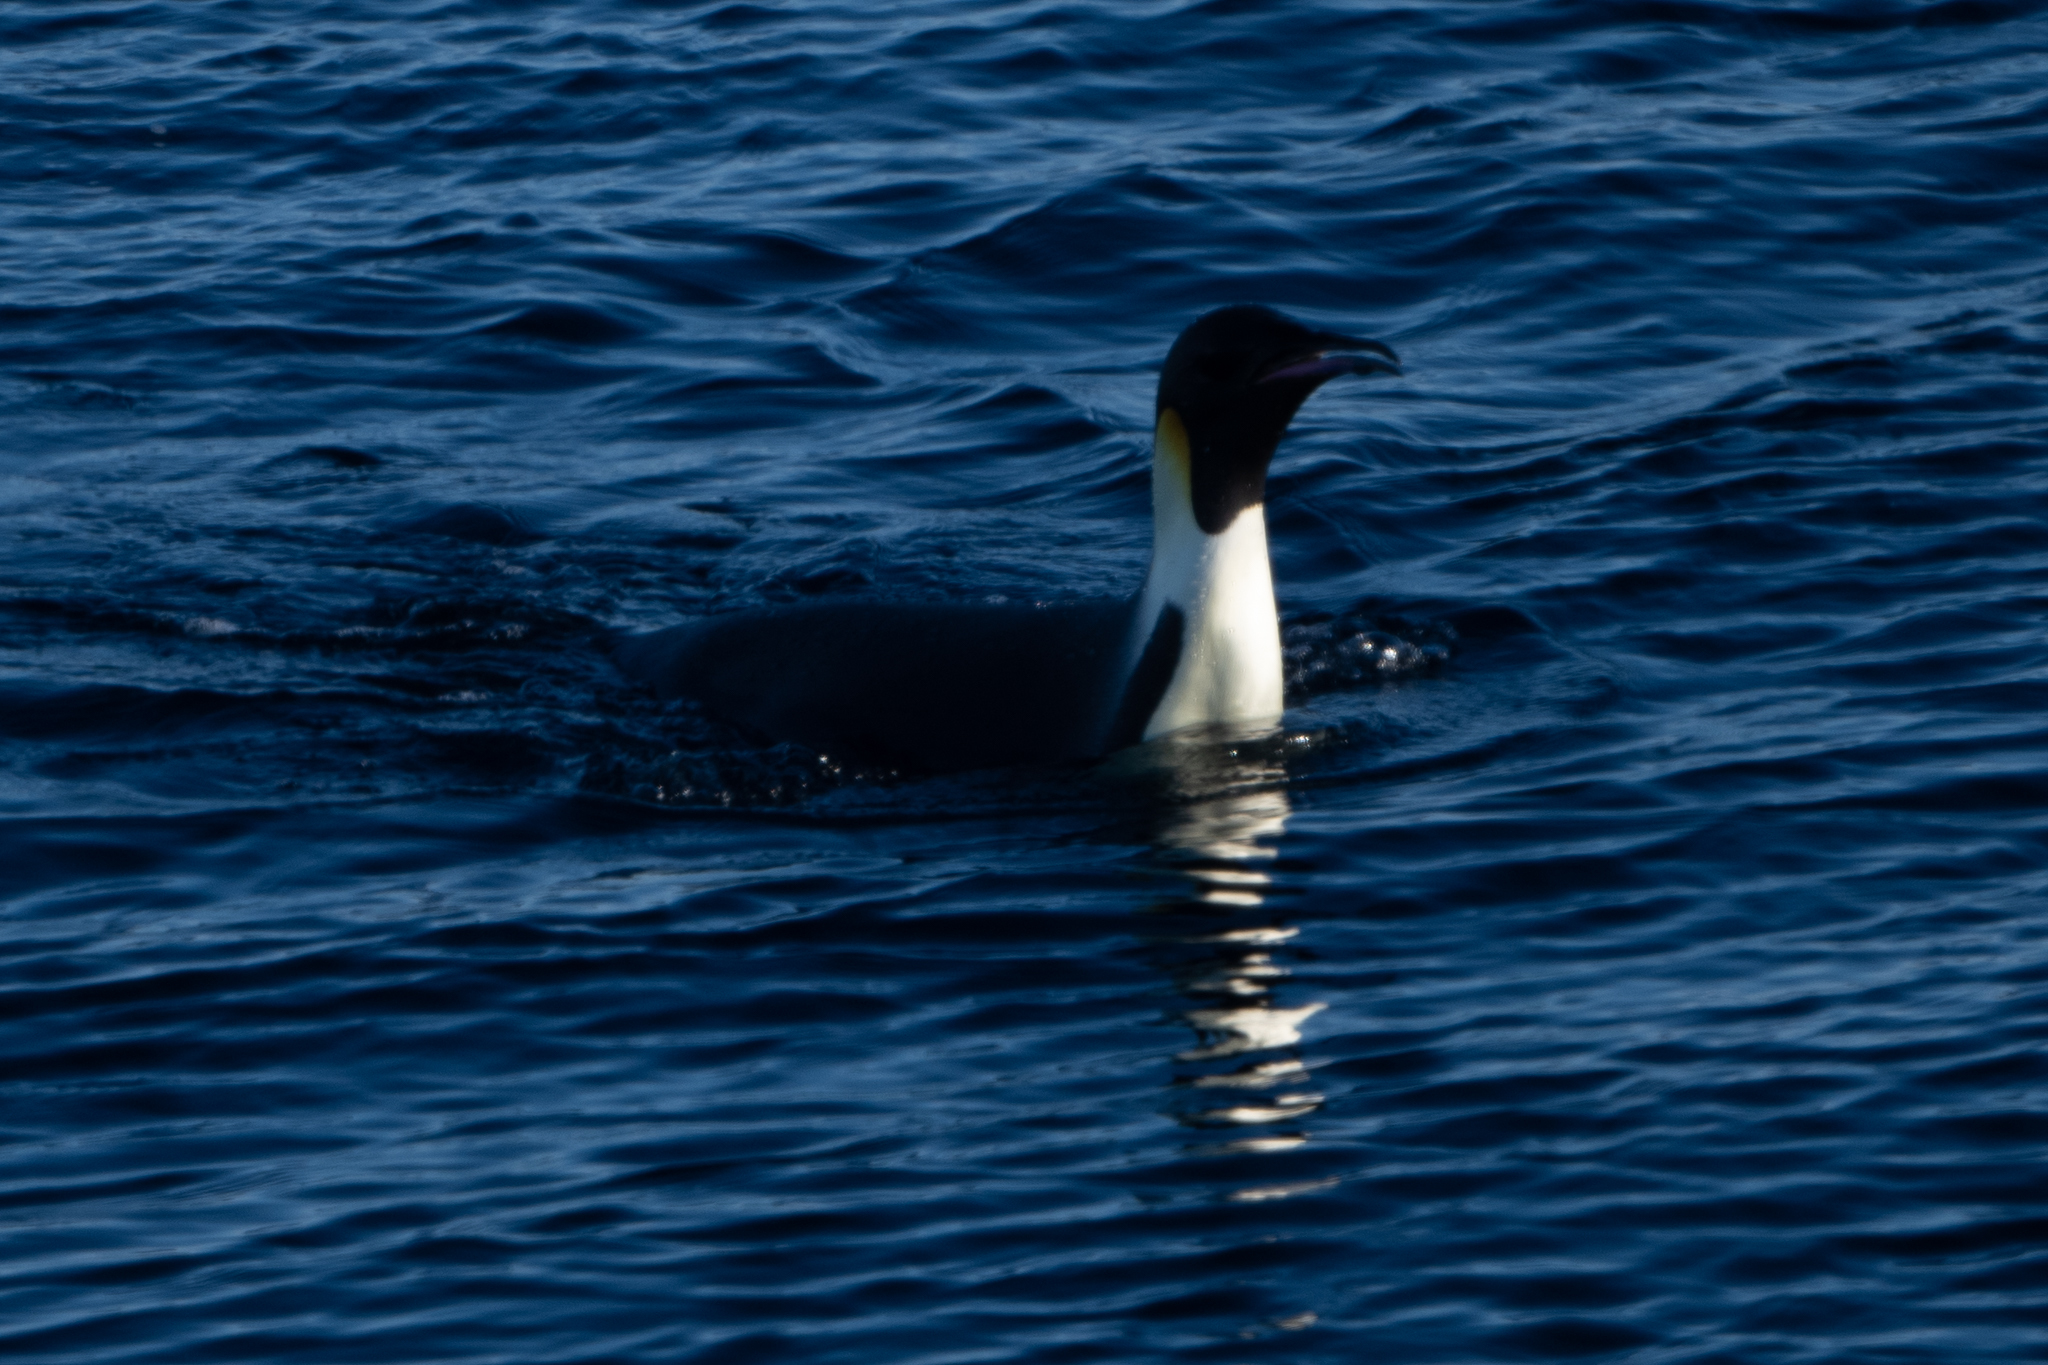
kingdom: Animalia
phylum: Chordata
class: Aves
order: Sphenisciformes
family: Spheniscidae
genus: Aptenodytes
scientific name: Aptenodytes forsteri
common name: Emperor penguin
